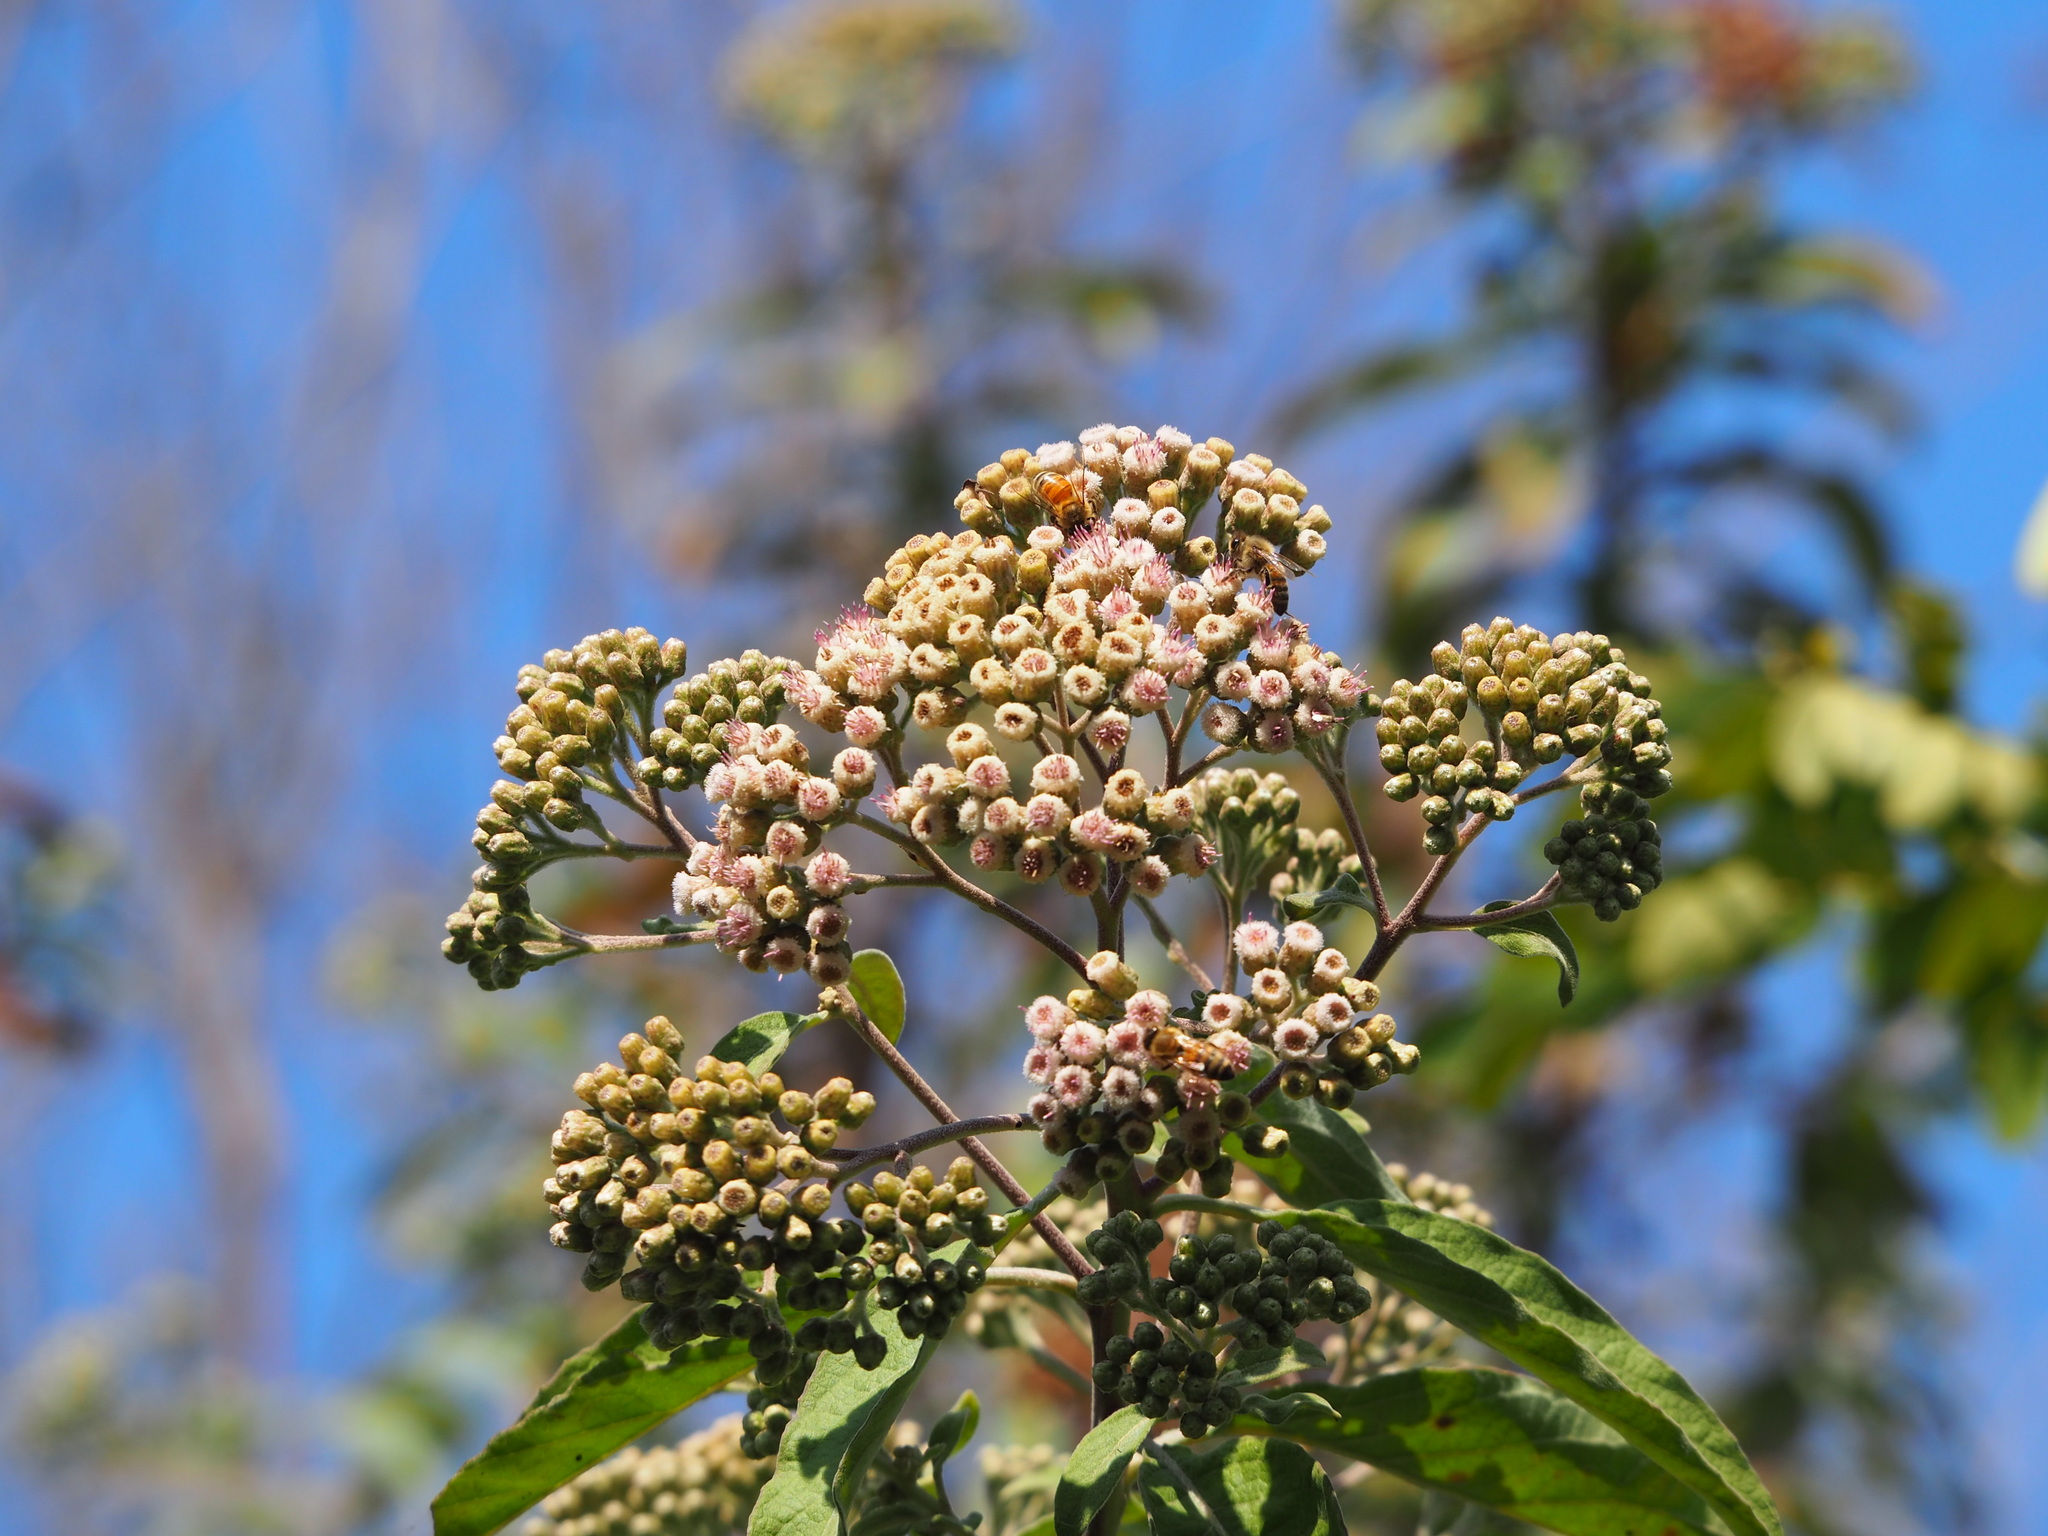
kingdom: Plantae
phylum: Tracheophyta
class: Magnoliopsida
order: Asterales
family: Asteraceae
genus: Pluchea
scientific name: Pluchea carolinensis
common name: Marsh fleabane
